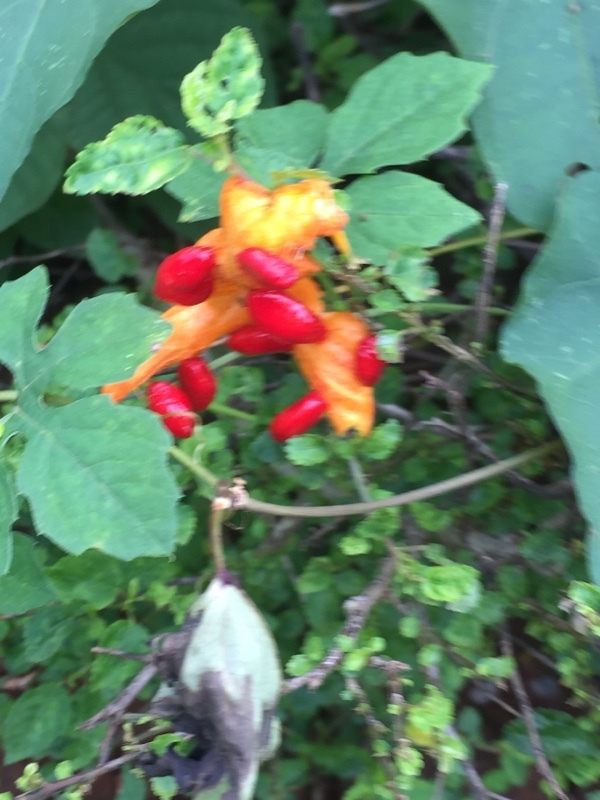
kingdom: Plantae
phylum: Tracheophyta
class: Magnoliopsida
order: Cucurbitales
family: Cucurbitaceae
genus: Momordica
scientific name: Momordica charantia
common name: Balsampear
